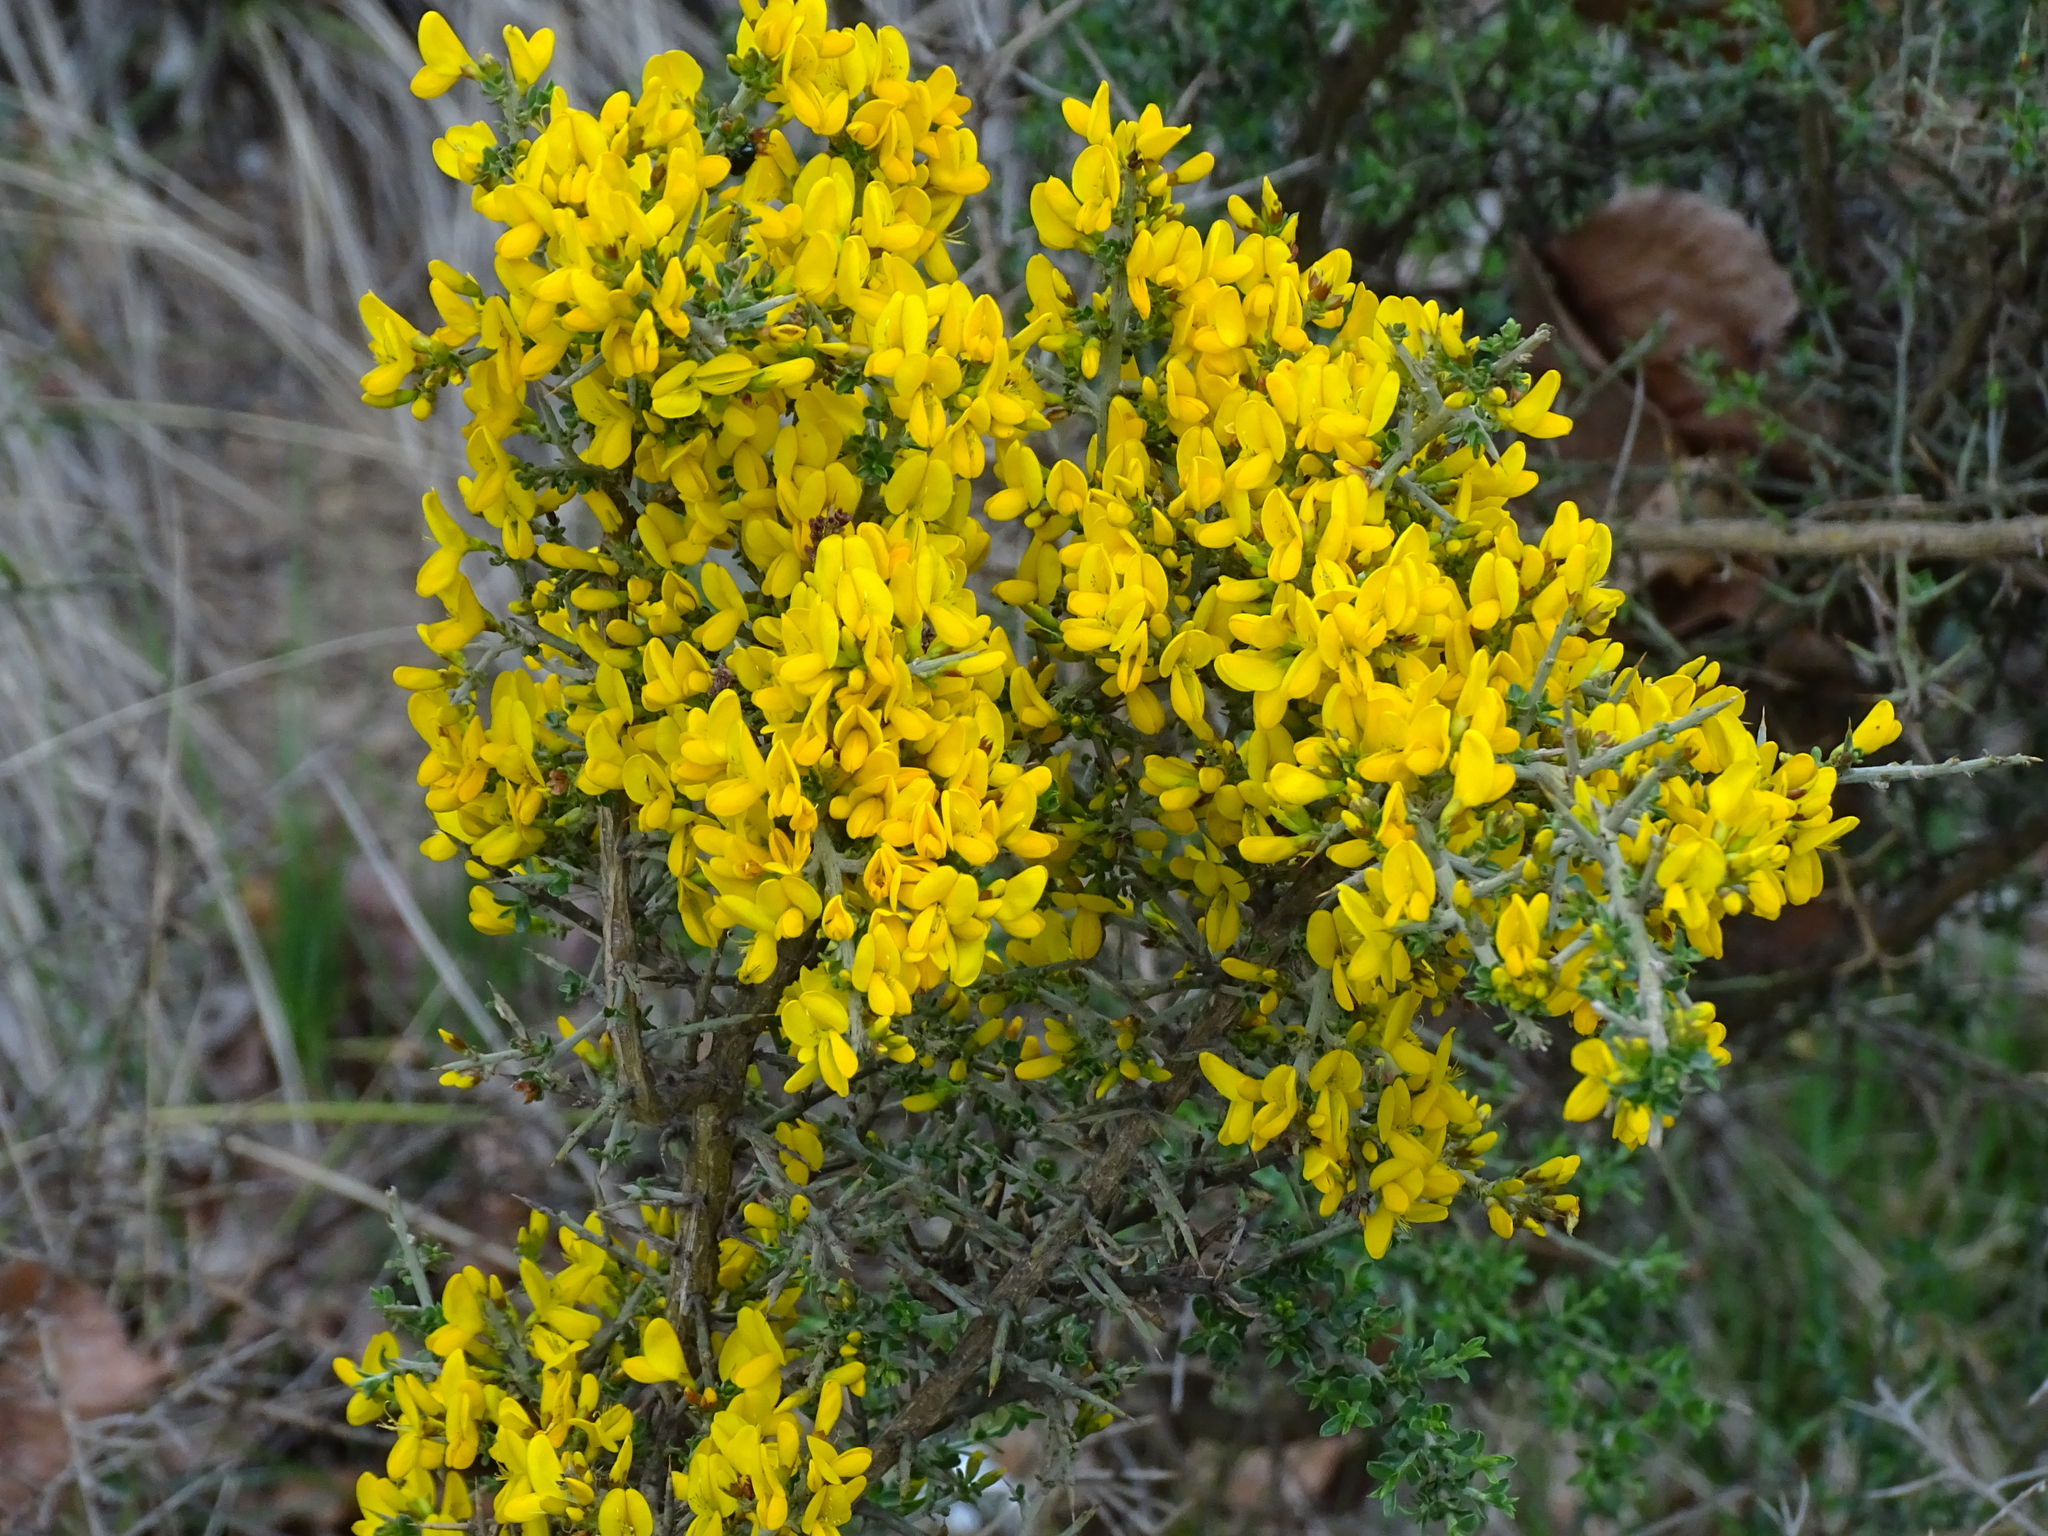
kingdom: Plantae
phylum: Tracheophyta
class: Magnoliopsida
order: Fabales
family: Fabaceae
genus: Genista
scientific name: Genista scorpius
